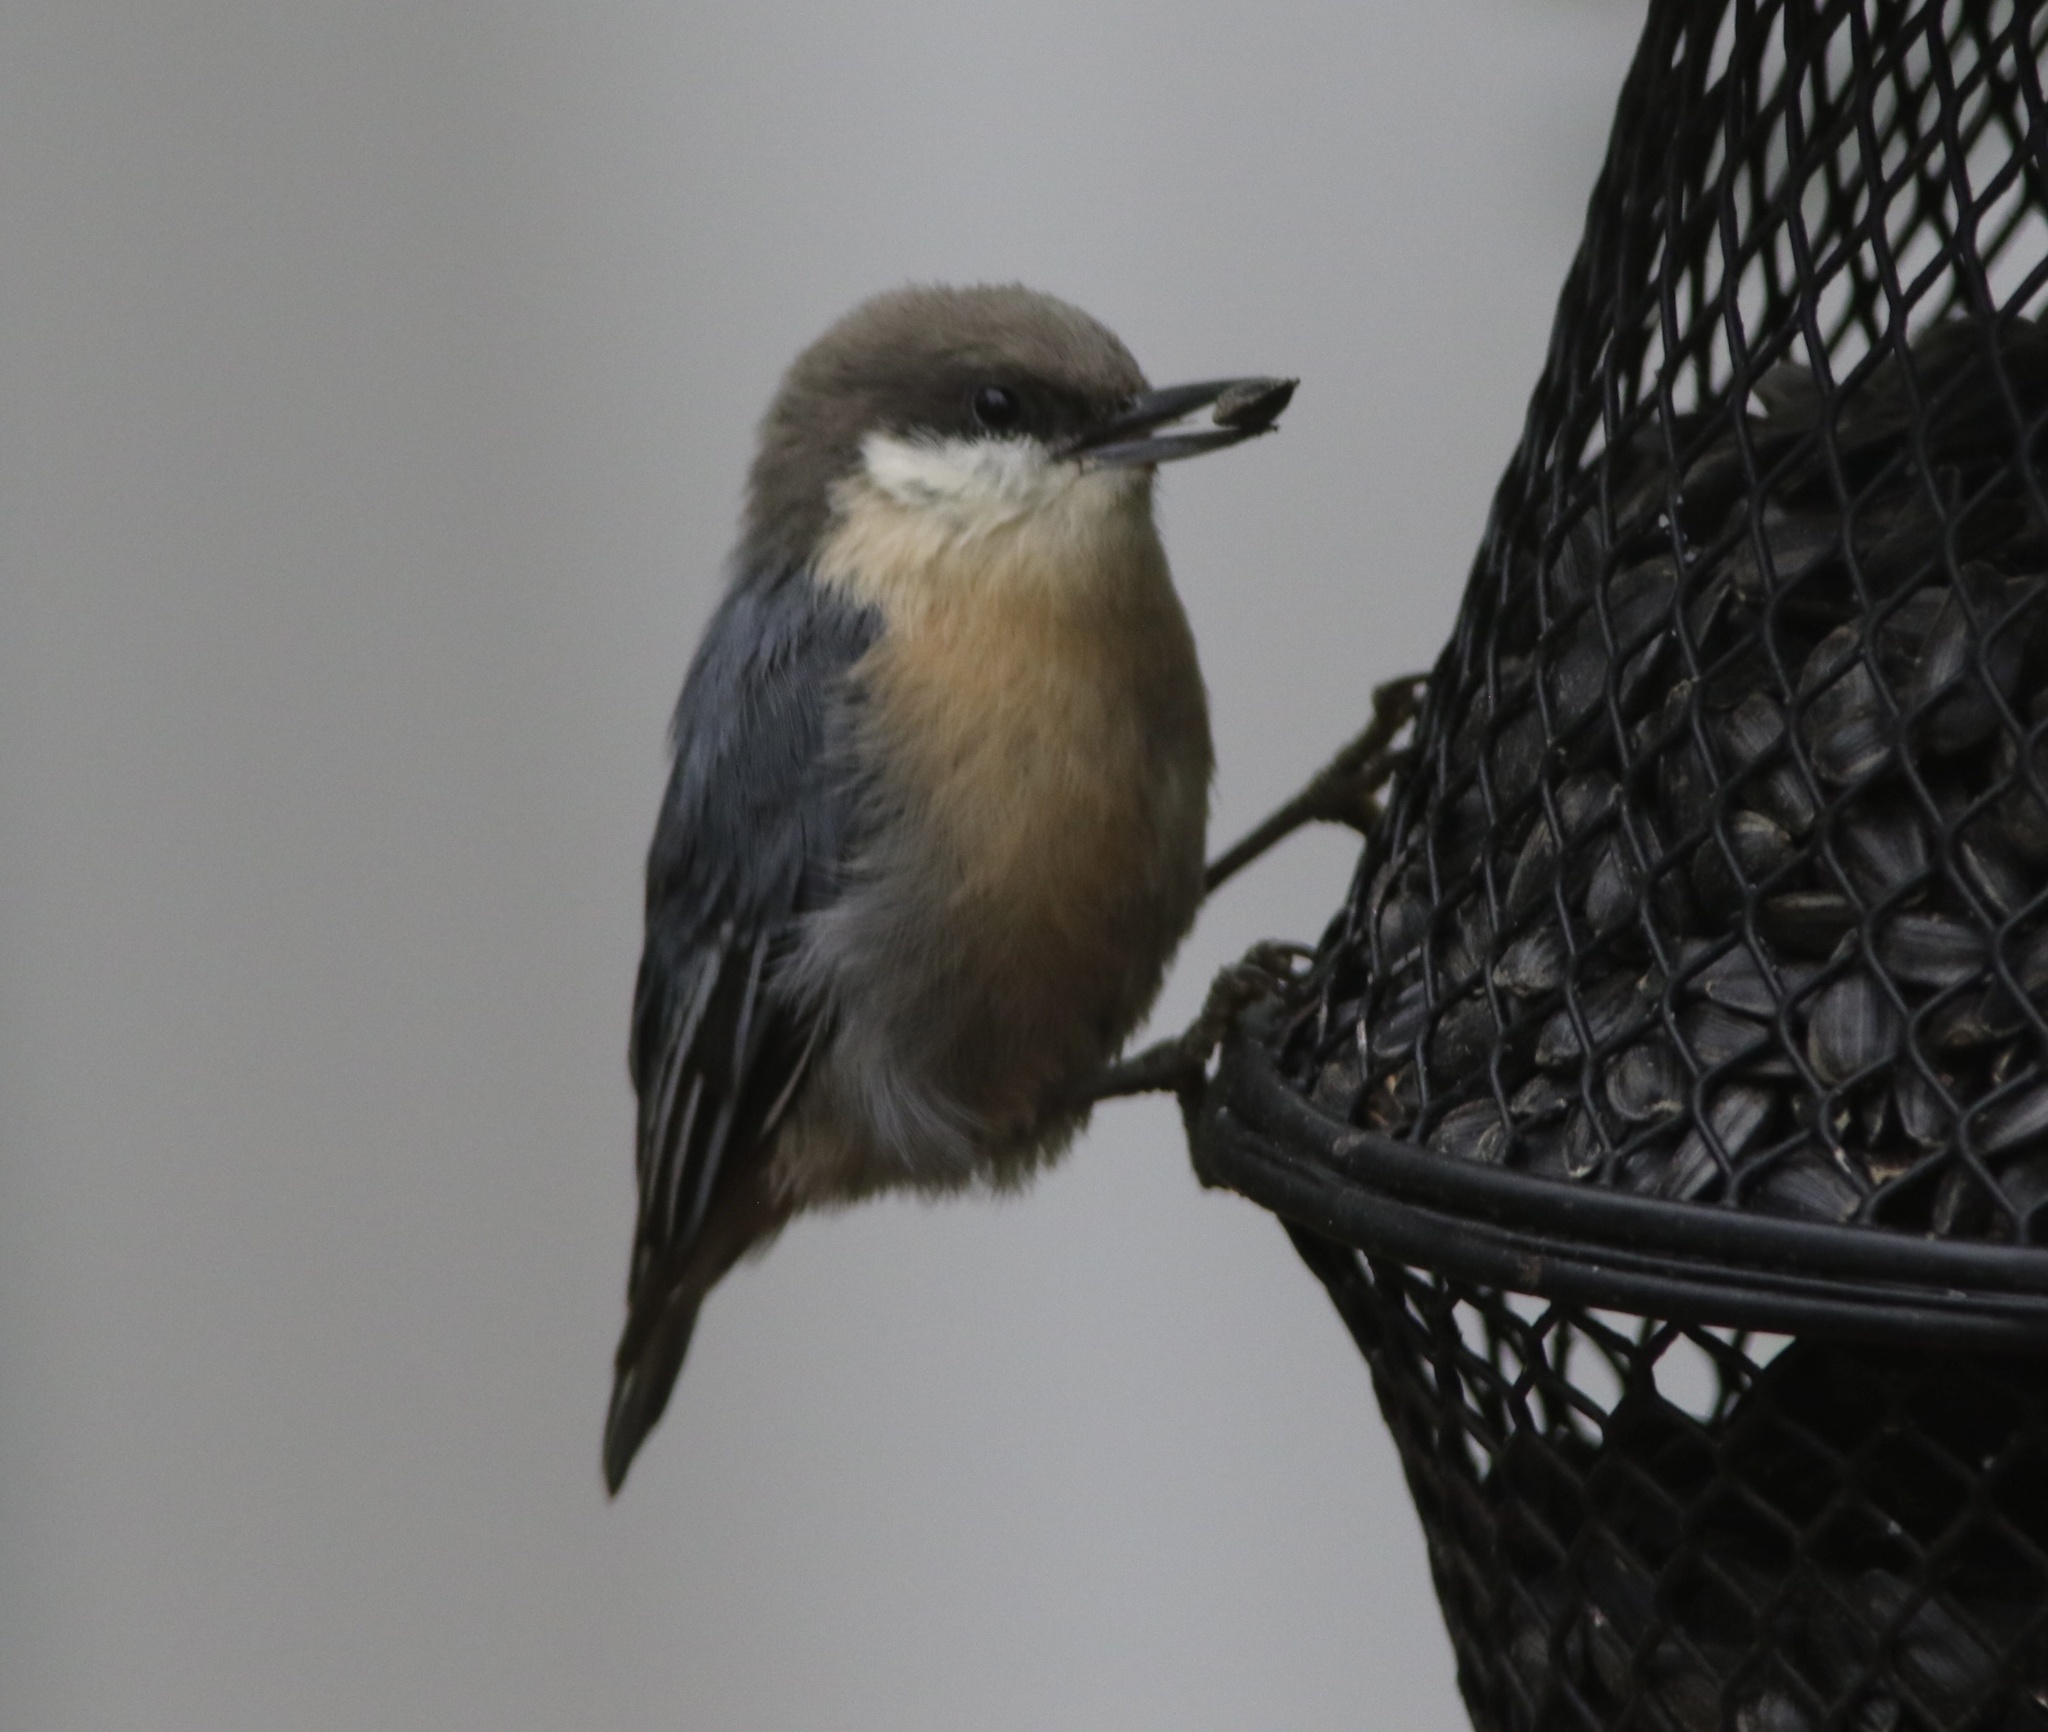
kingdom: Animalia
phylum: Chordata
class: Aves
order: Passeriformes
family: Sittidae
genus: Sitta
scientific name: Sitta pygmaea
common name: Pygmy nuthatch
